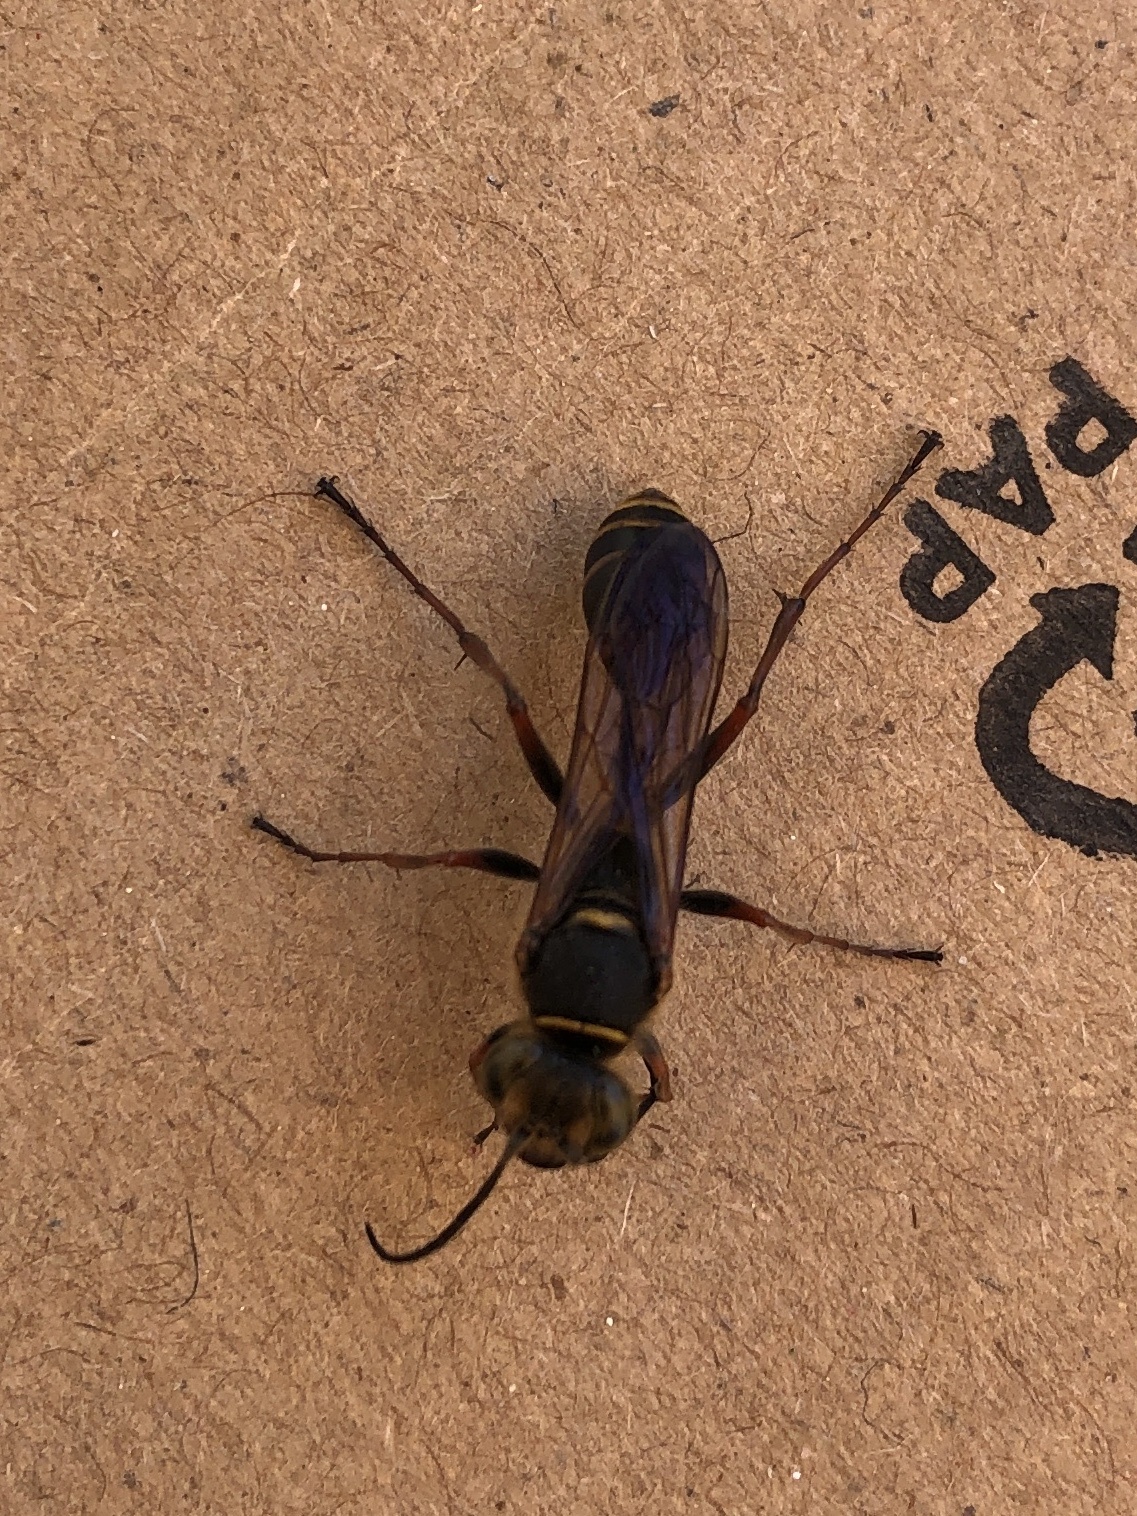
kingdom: Animalia
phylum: Arthropoda
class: Insecta
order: Hymenoptera
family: Sphecidae
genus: Sceliphron
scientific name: Sceliphron curvatum
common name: Pèlopèe
